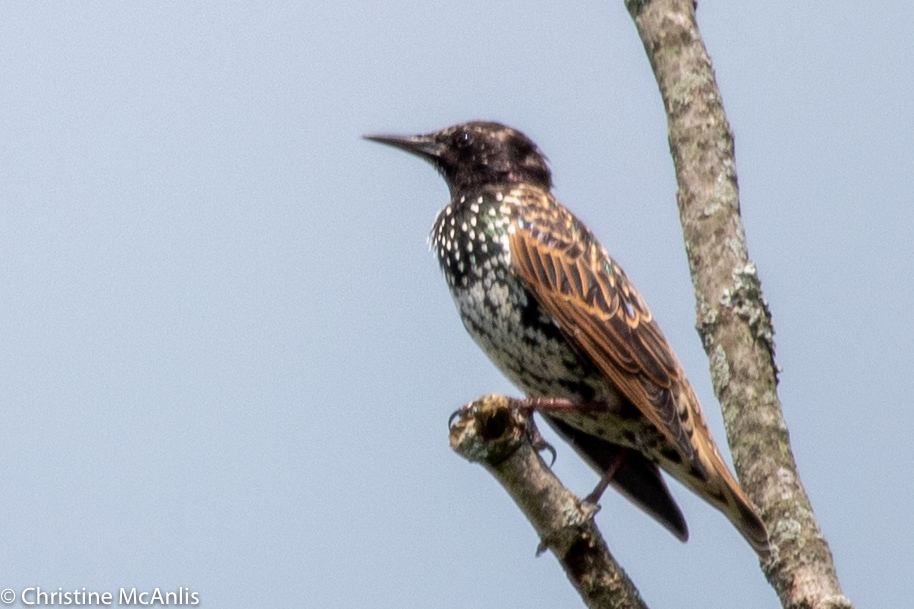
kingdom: Animalia
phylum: Chordata
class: Aves
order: Passeriformes
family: Sturnidae
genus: Sturnus
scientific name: Sturnus vulgaris
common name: Common starling
